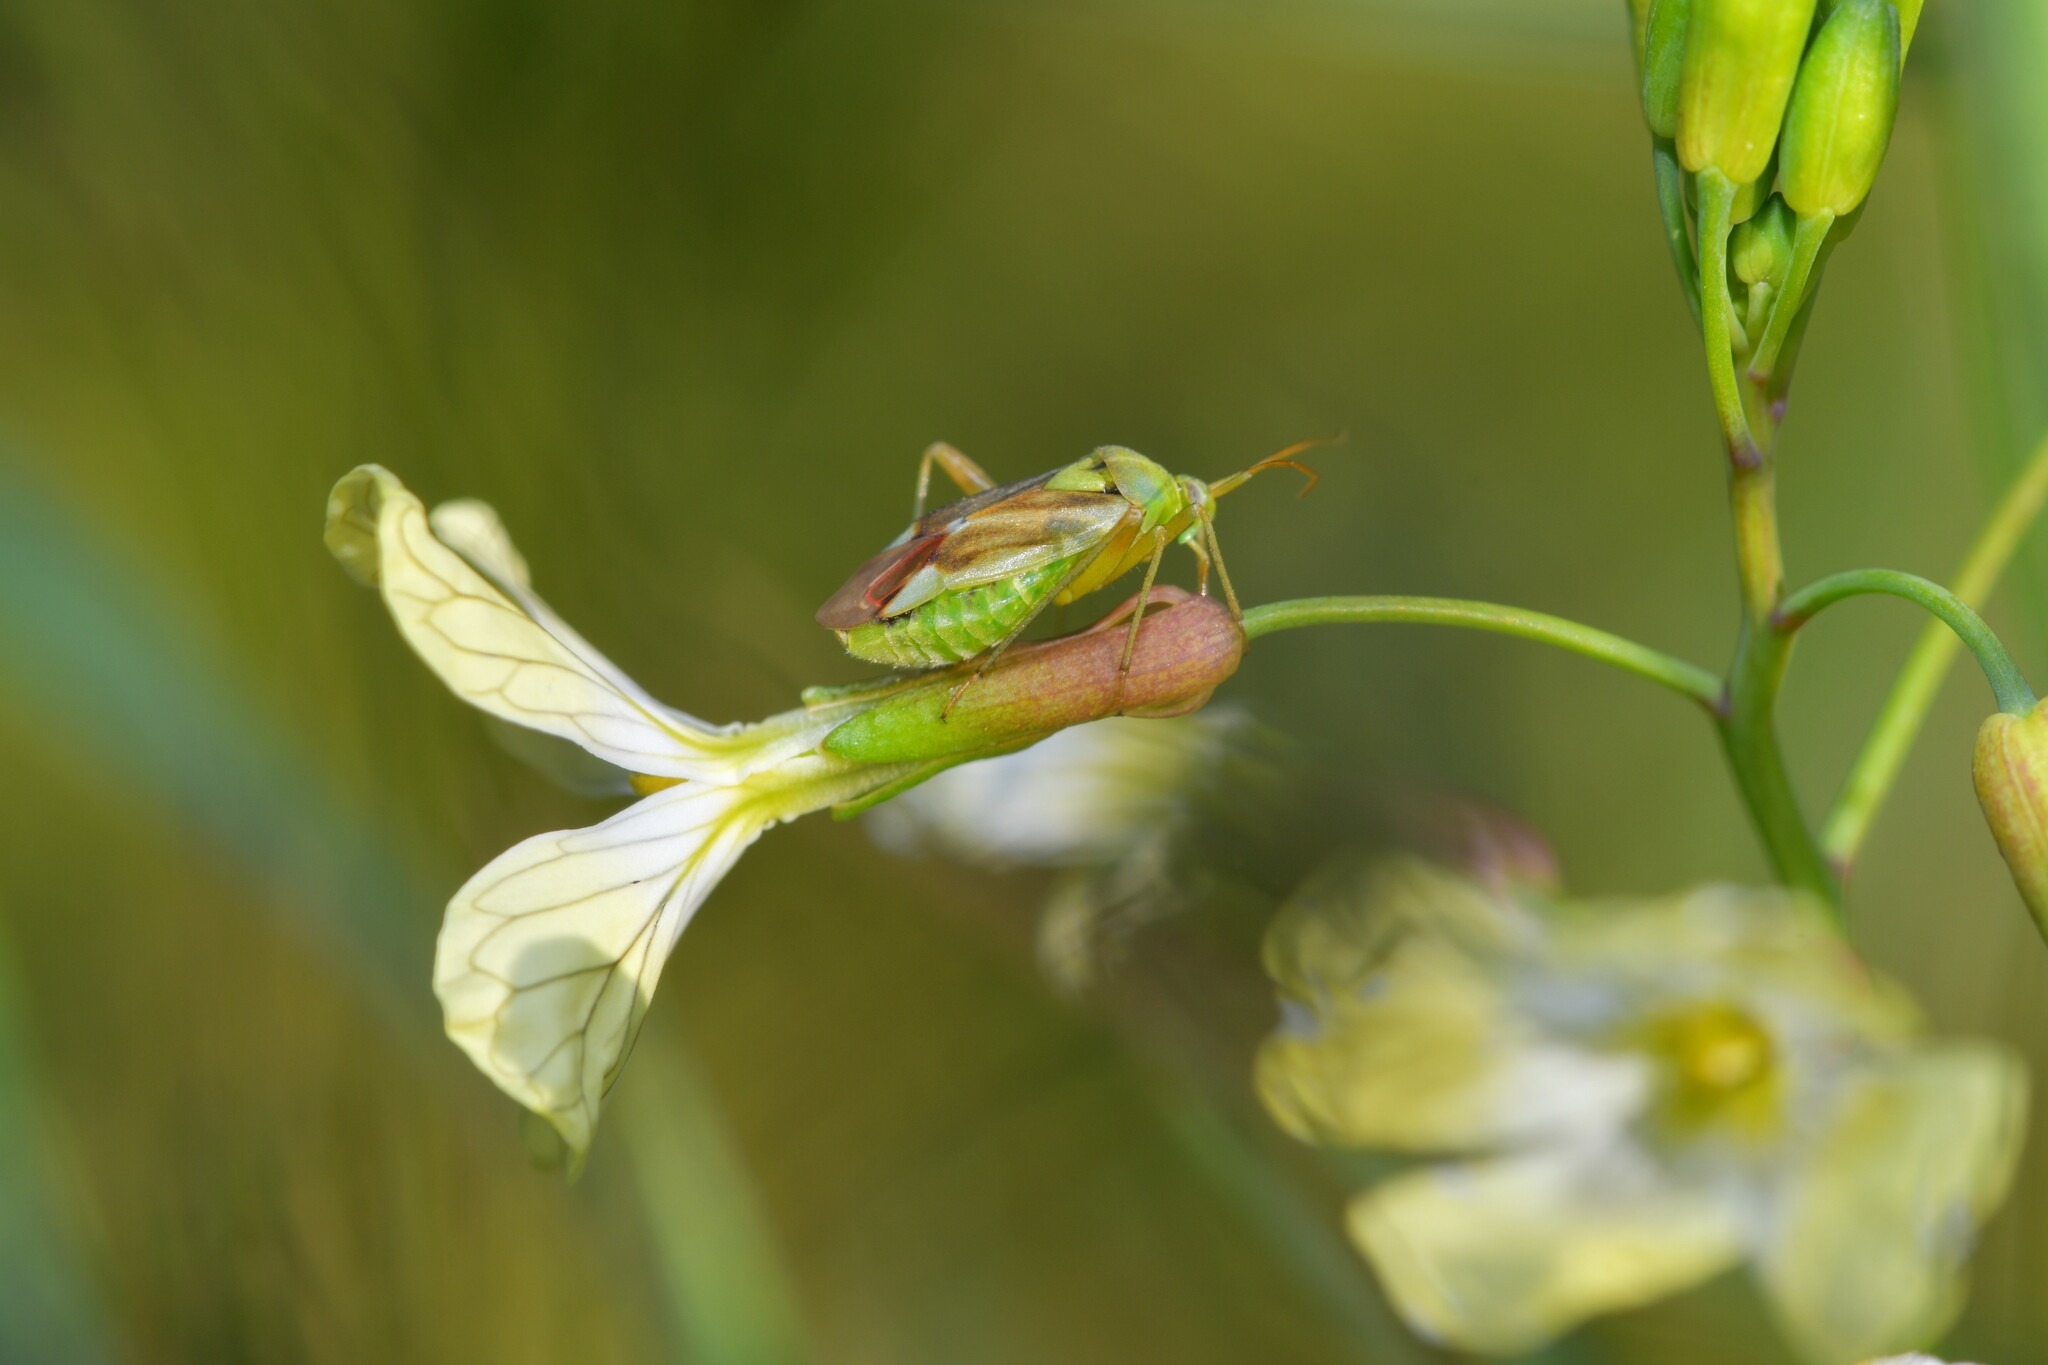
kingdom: Animalia
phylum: Arthropoda
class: Insecta
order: Hemiptera
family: Miridae
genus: Reuterista
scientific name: Reuterista instabilis
